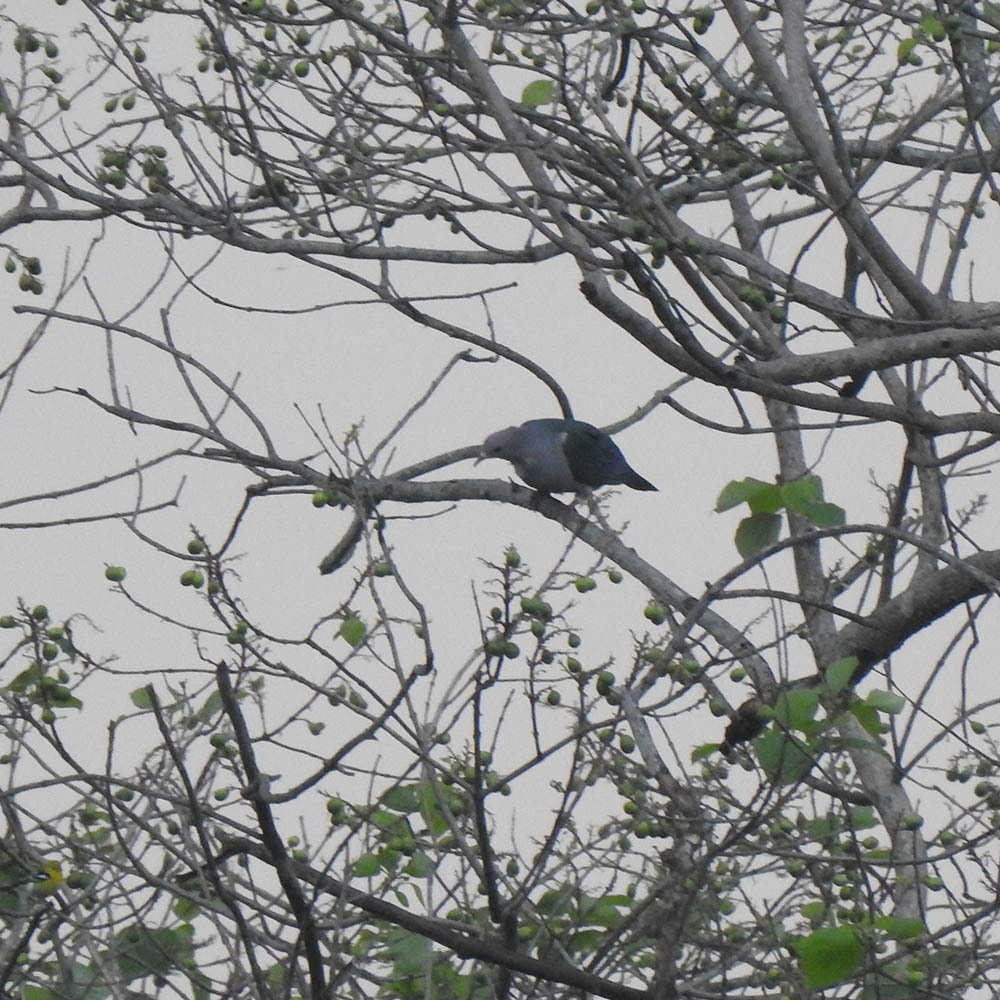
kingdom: Animalia
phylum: Chordata
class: Aves
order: Columbiformes
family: Columbidae
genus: Ducula
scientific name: Ducula aenea
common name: Green imperial pigeon
